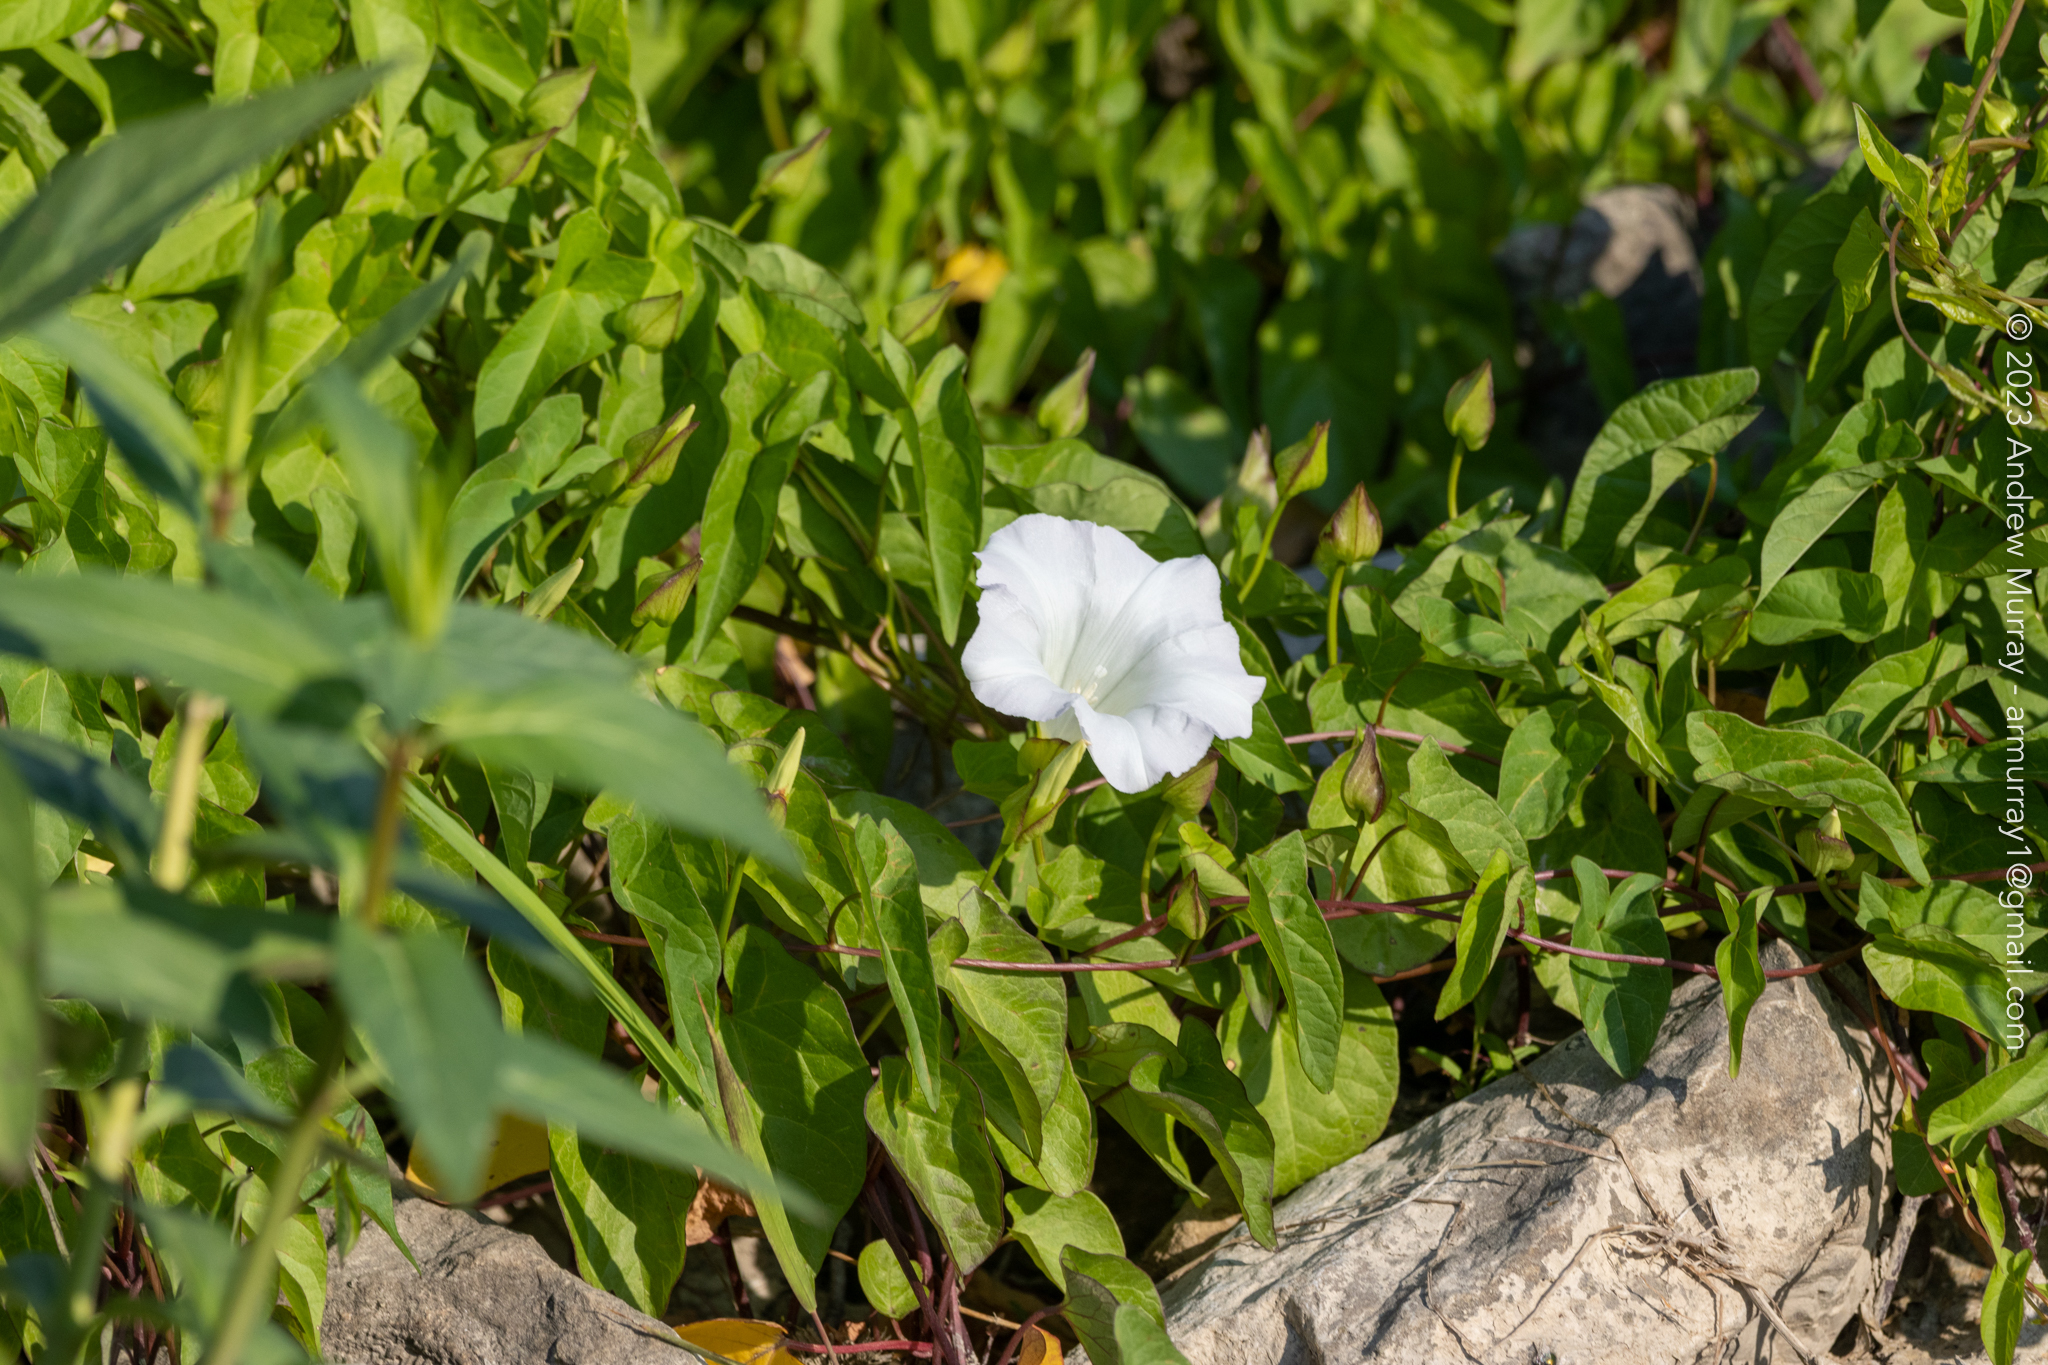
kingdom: Plantae
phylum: Tracheophyta
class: Magnoliopsida
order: Solanales
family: Convolvulaceae
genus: Calystegia
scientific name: Calystegia sepium
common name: Hedge bindweed
